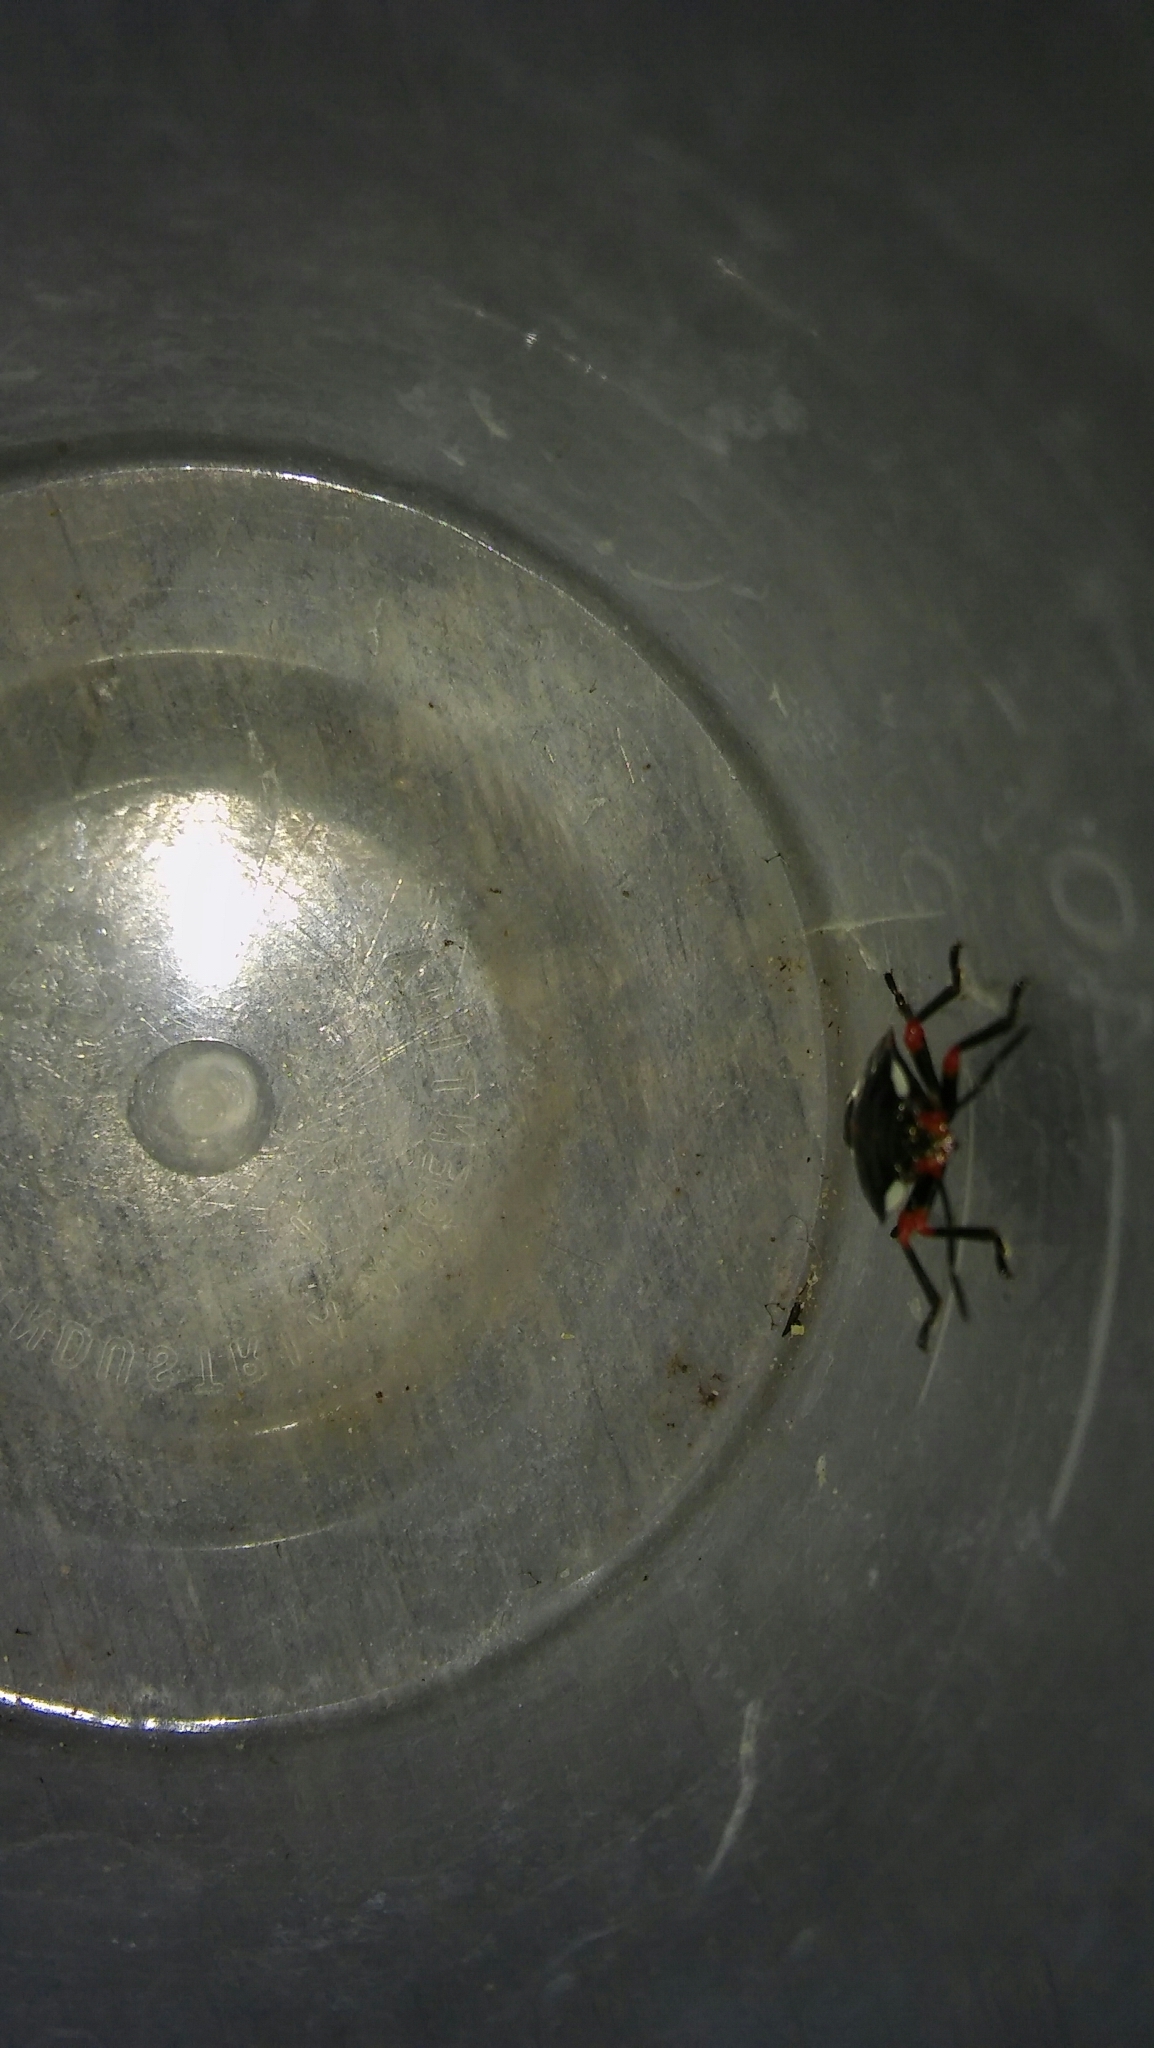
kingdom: Animalia
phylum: Arthropoda
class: Insecta
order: Hemiptera
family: Pentatomidae
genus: Chinavia
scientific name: Chinavia erythrocnemis
